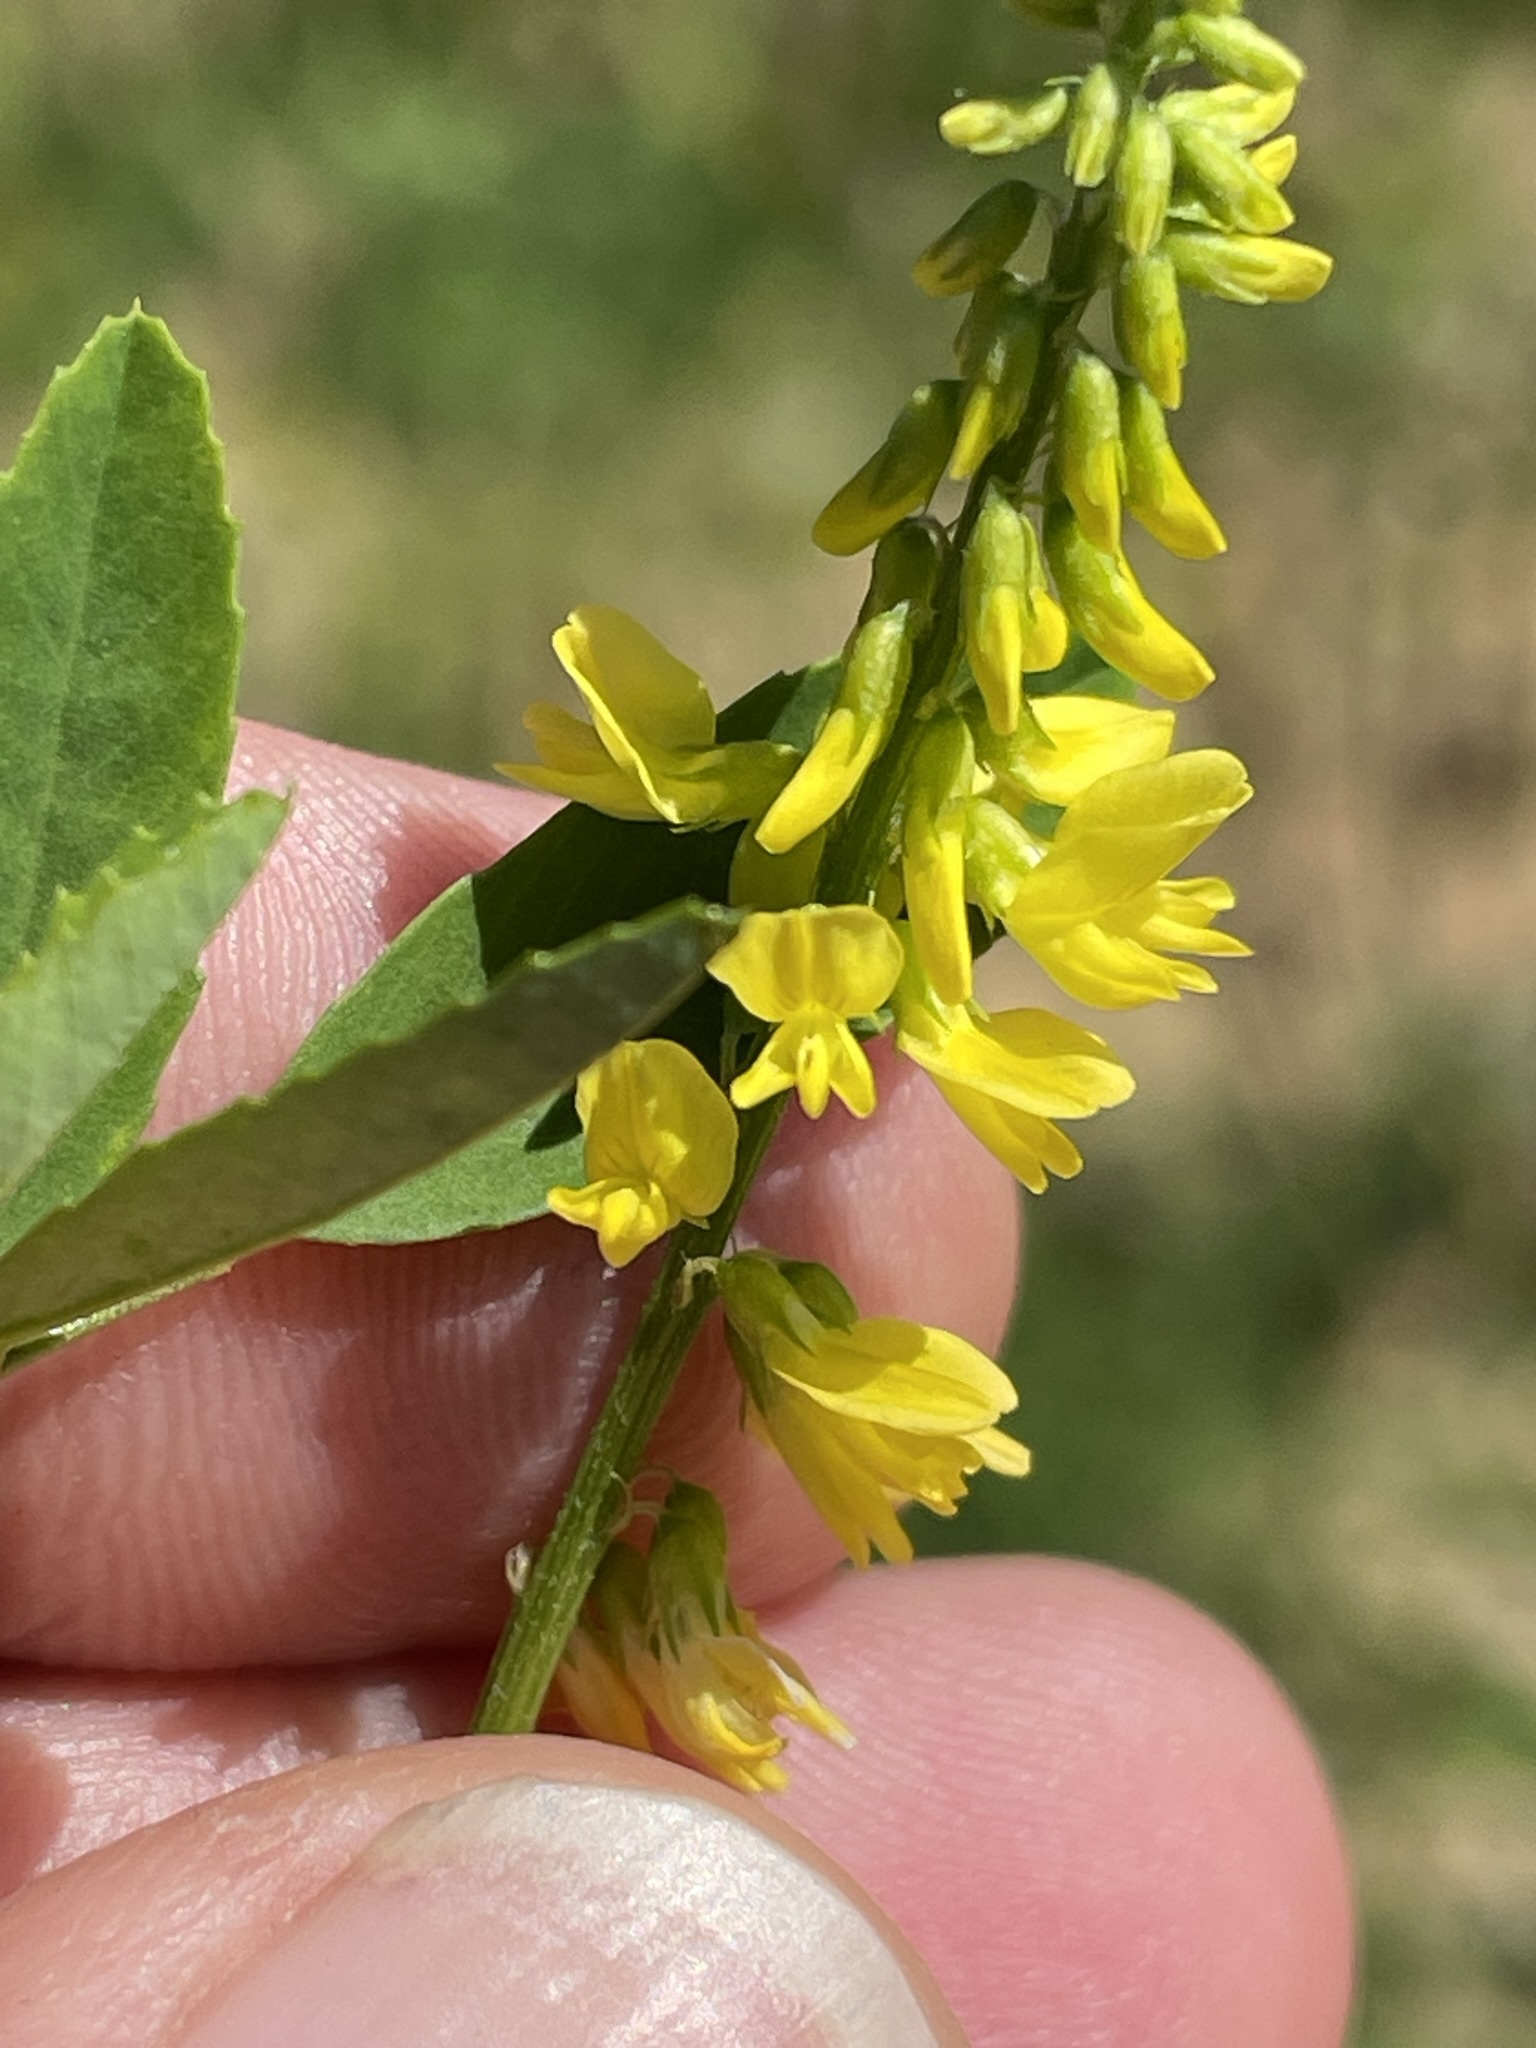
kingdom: Plantae
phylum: Tracheophyta
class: Magnoliopsida
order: Fabales
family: Fabaceae
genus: Melilotus
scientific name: Melilotus officinalis
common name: Sweetclover
